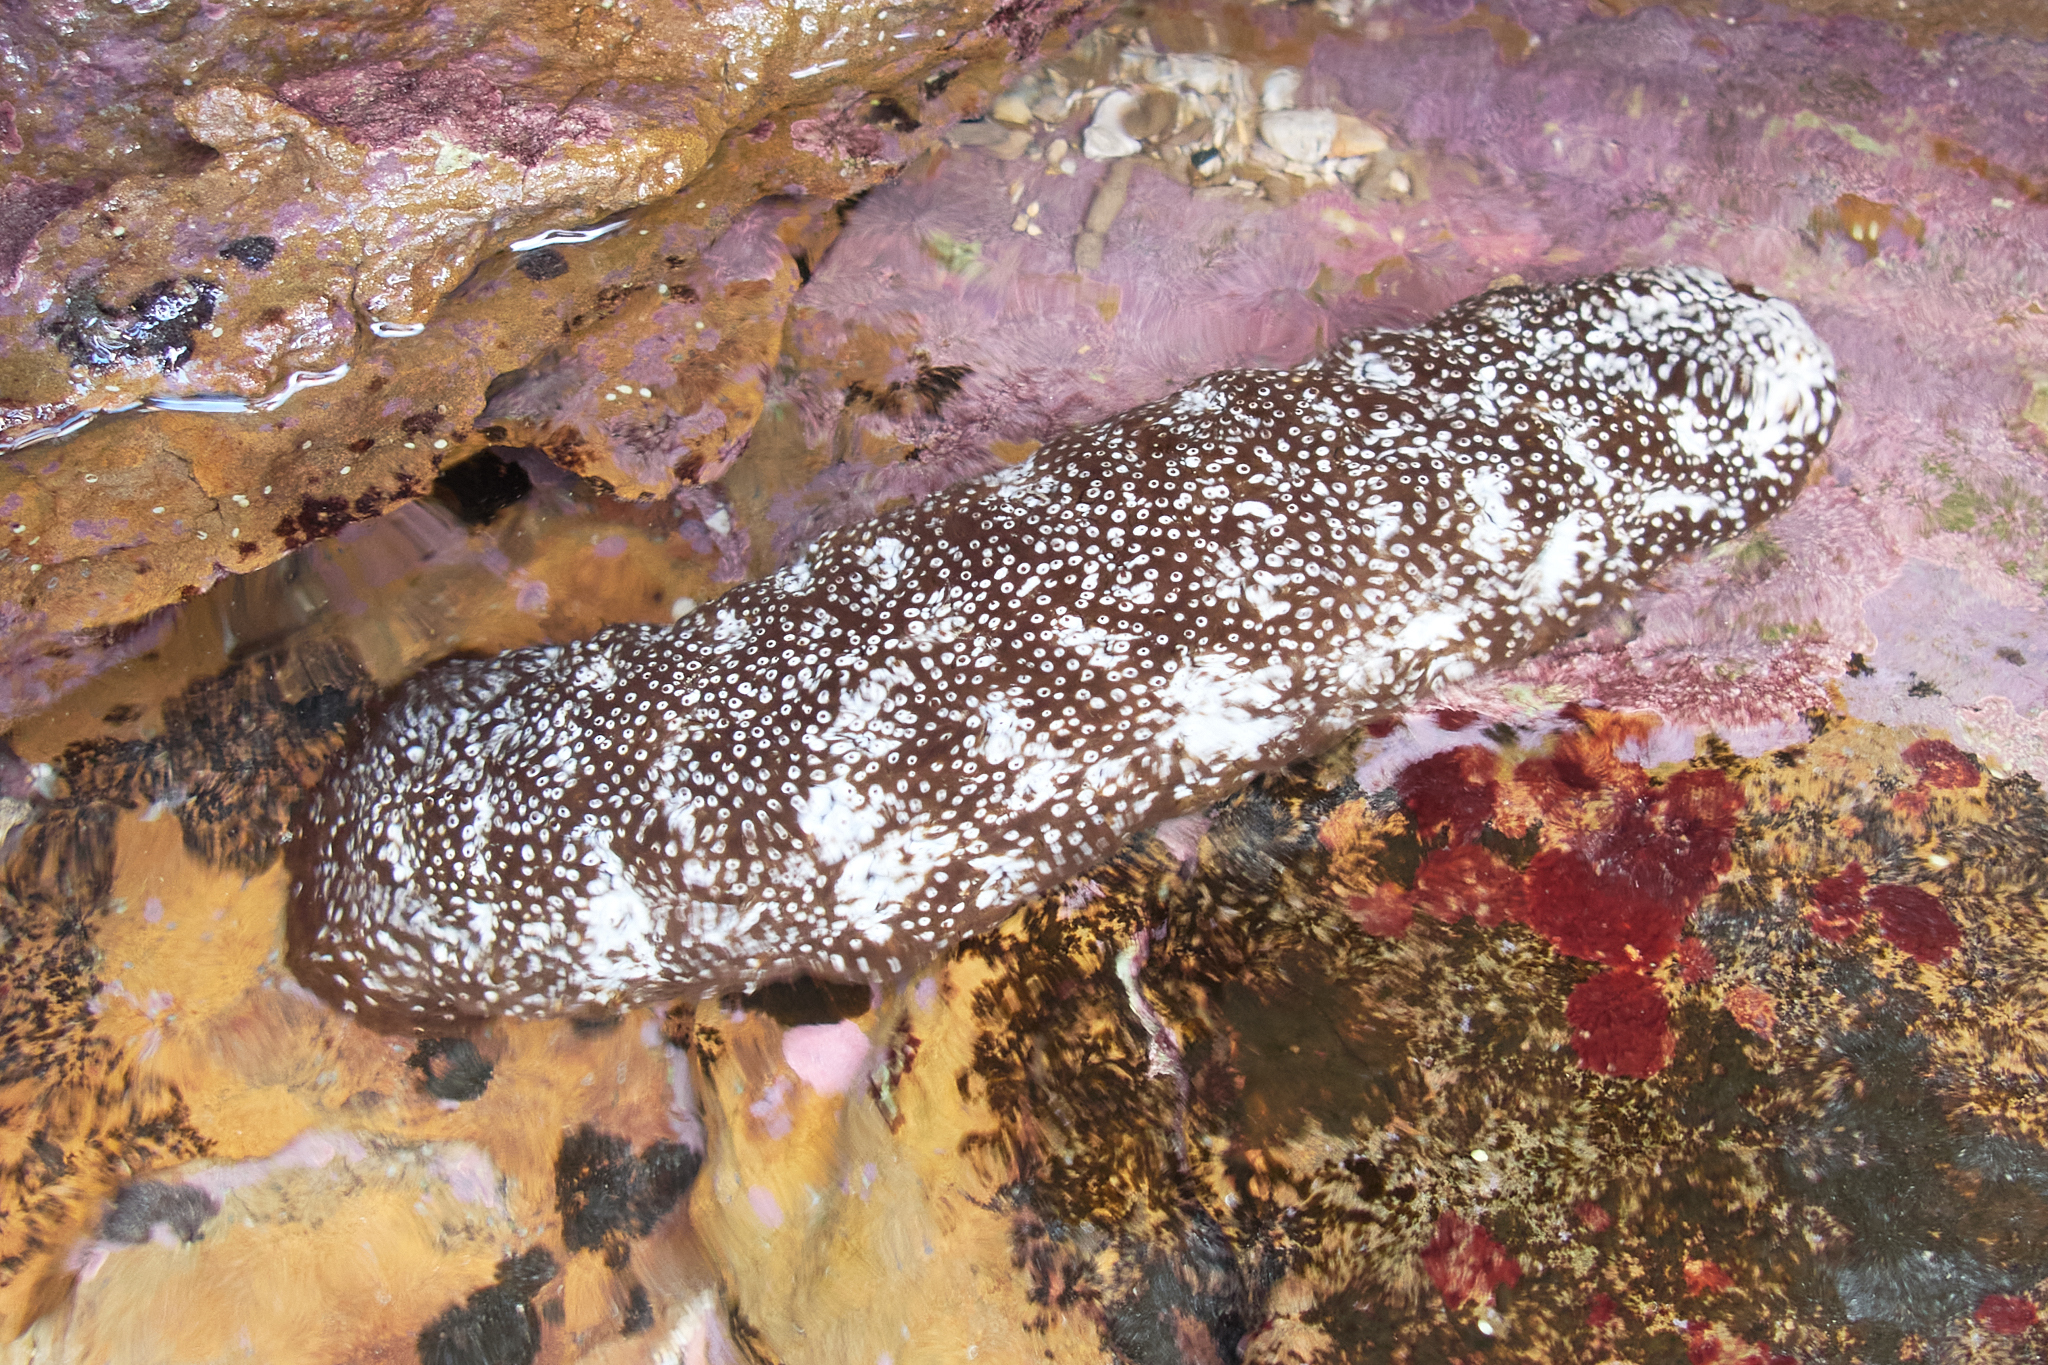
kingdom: Animalia
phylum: Echinodermata
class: Holothuroidea
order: Holothuriida
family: Holothuriidae
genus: Actinopyga
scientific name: Actinopyga varians
